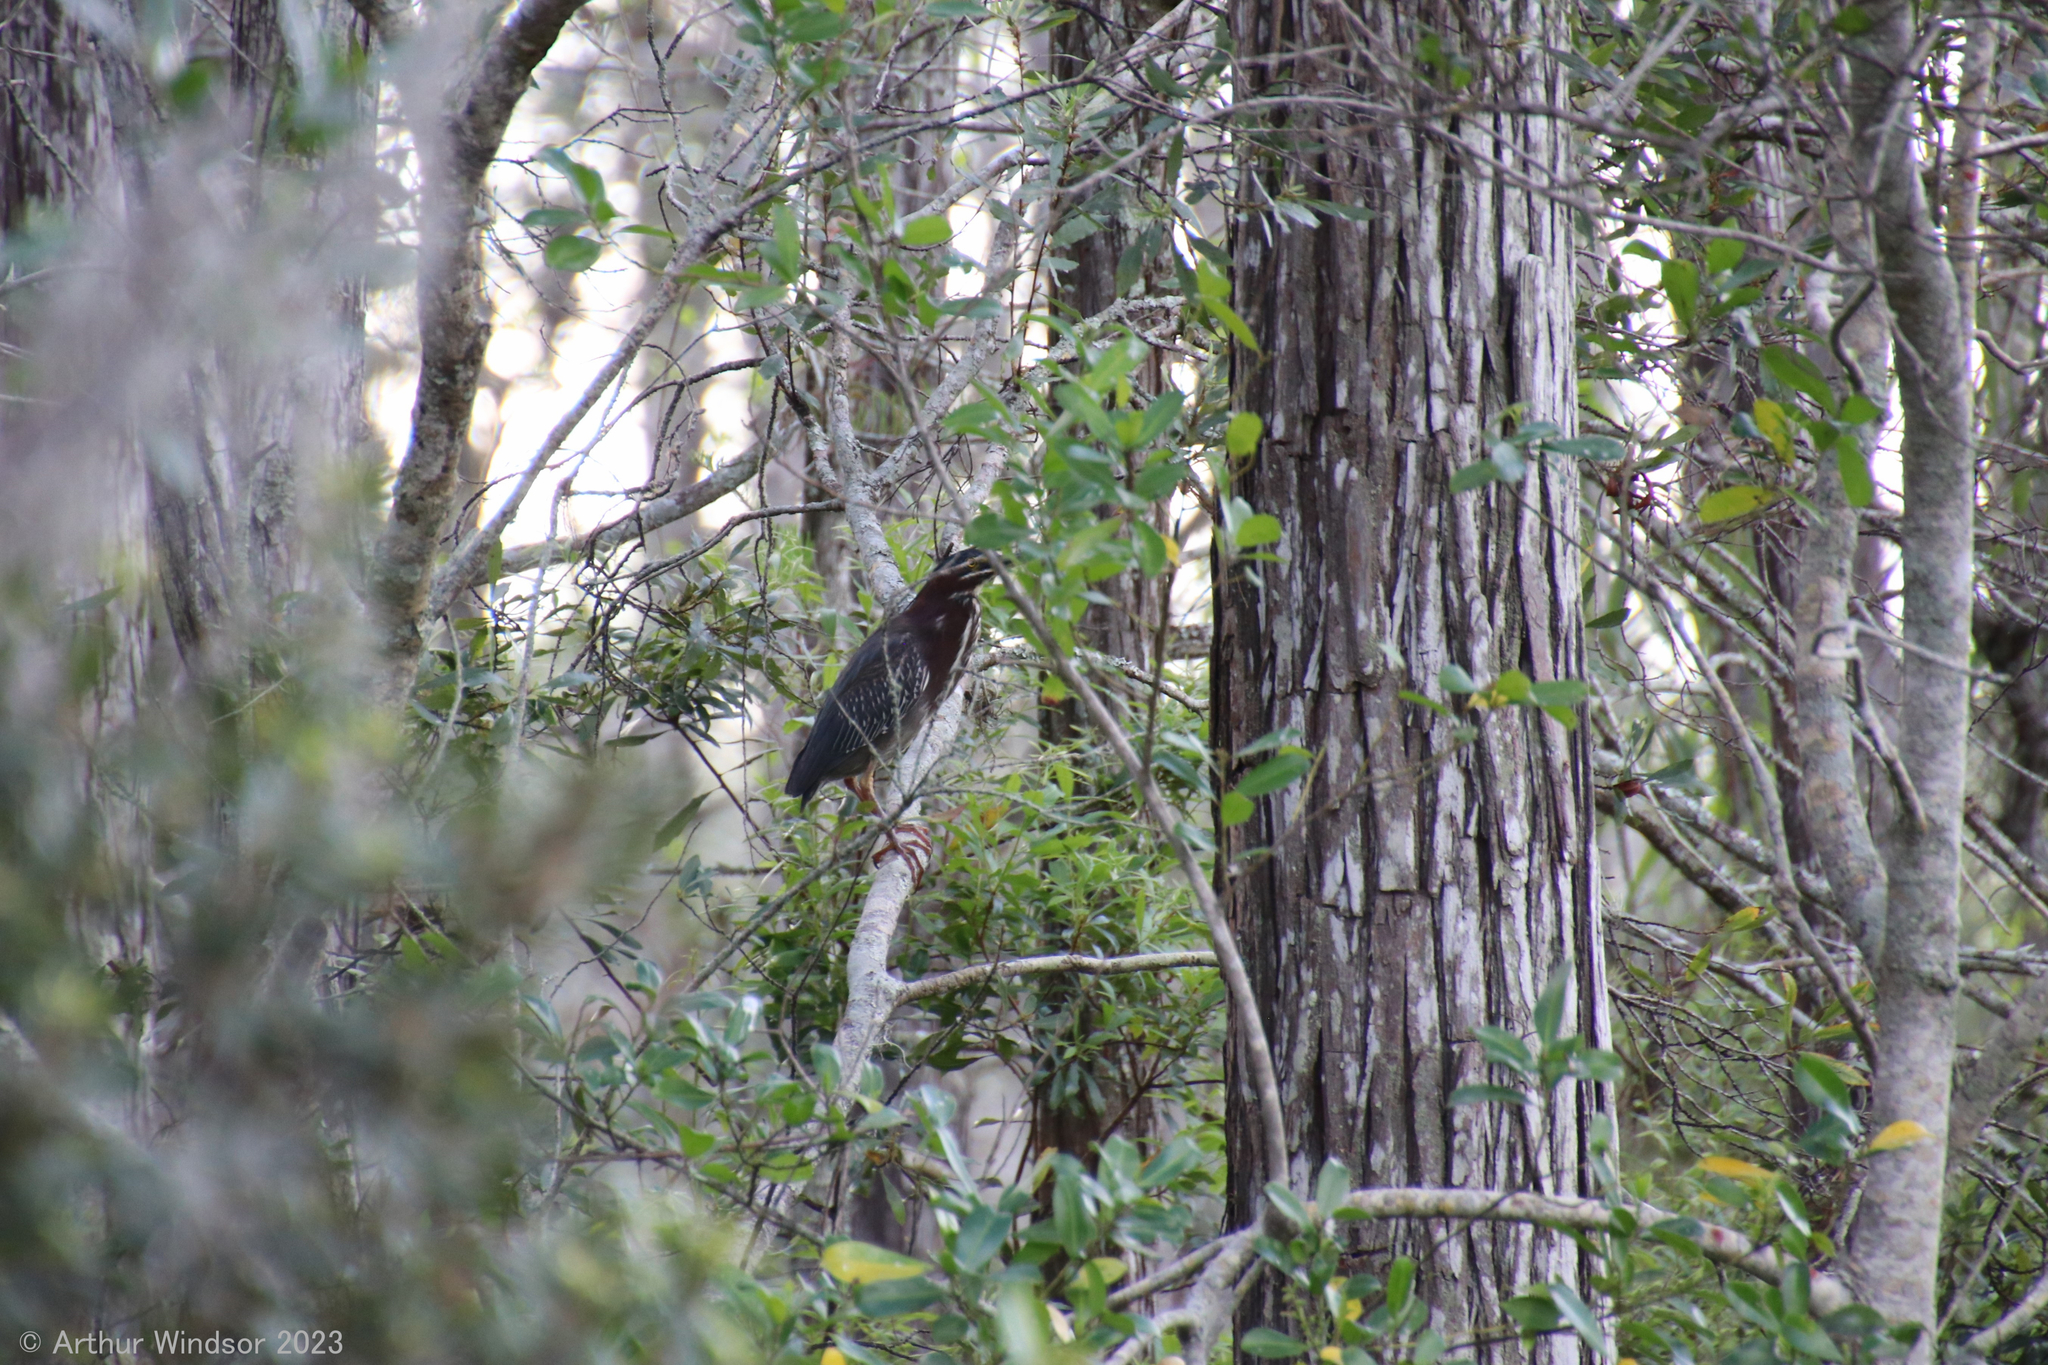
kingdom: Animalia
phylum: Chordata
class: Aves
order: Pelecaniformes
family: Ardeidae
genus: Butorides
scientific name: Butorides virescens
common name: Green heron
